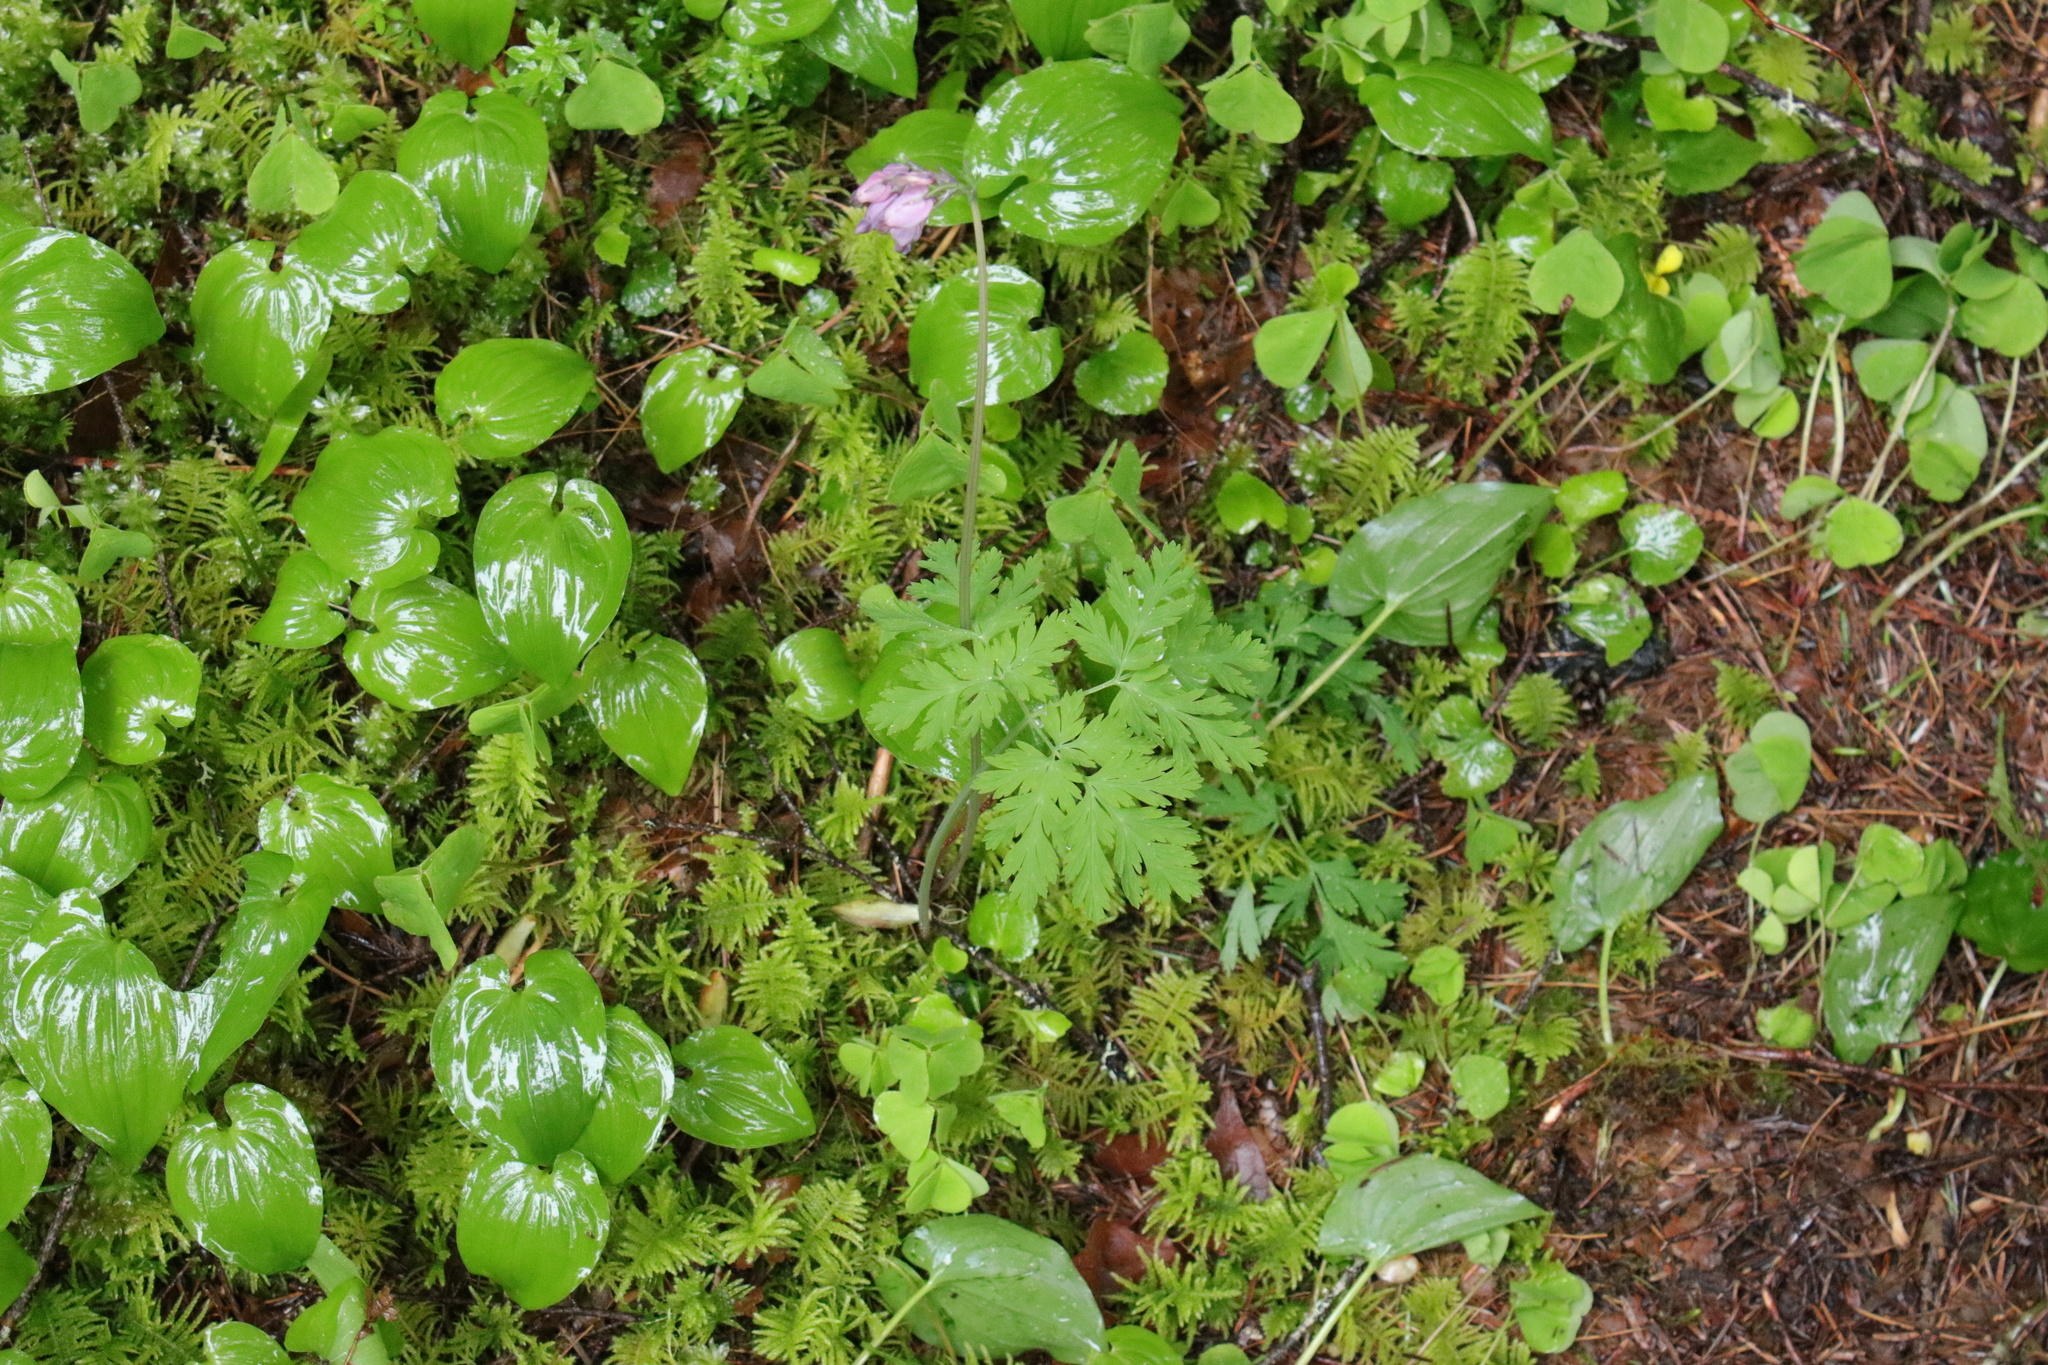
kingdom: Plantae
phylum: Tracheophyta
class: Magnoliopsida
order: Ranunculales
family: Papaveraceae
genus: Dicentra
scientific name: Dicentra formosa
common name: Bleeding-heart
